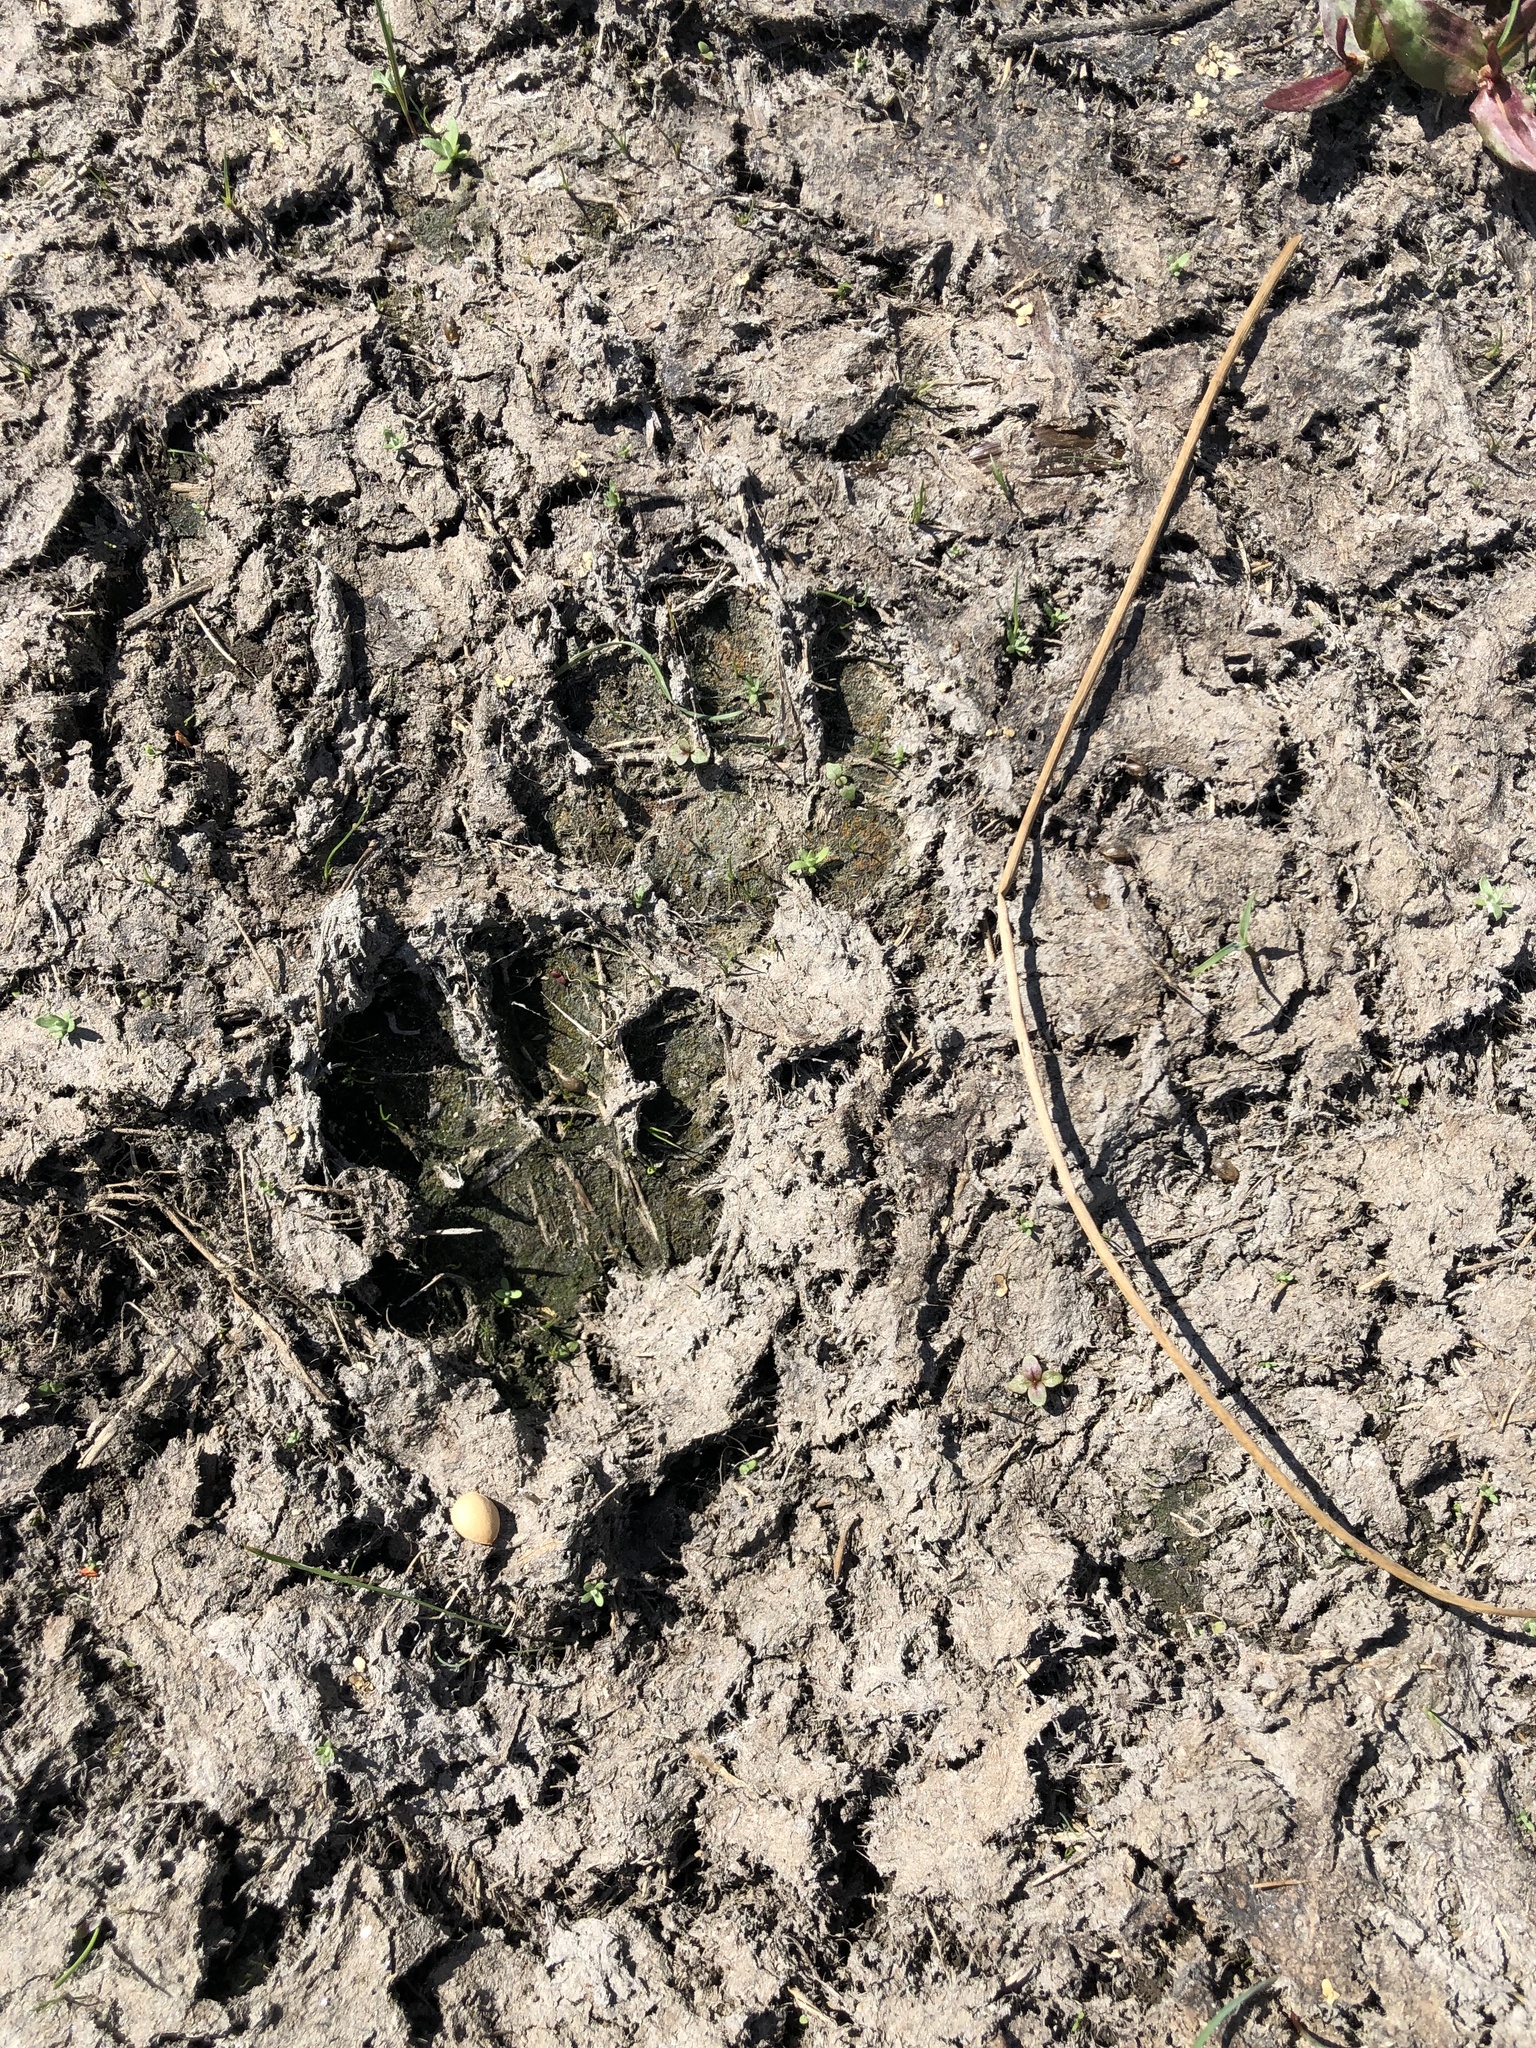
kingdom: Animalia
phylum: Chordata
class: Mammalia
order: Carnivora
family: Procyonidae
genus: Procyon
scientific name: Procyon lotor
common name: Raccoon
